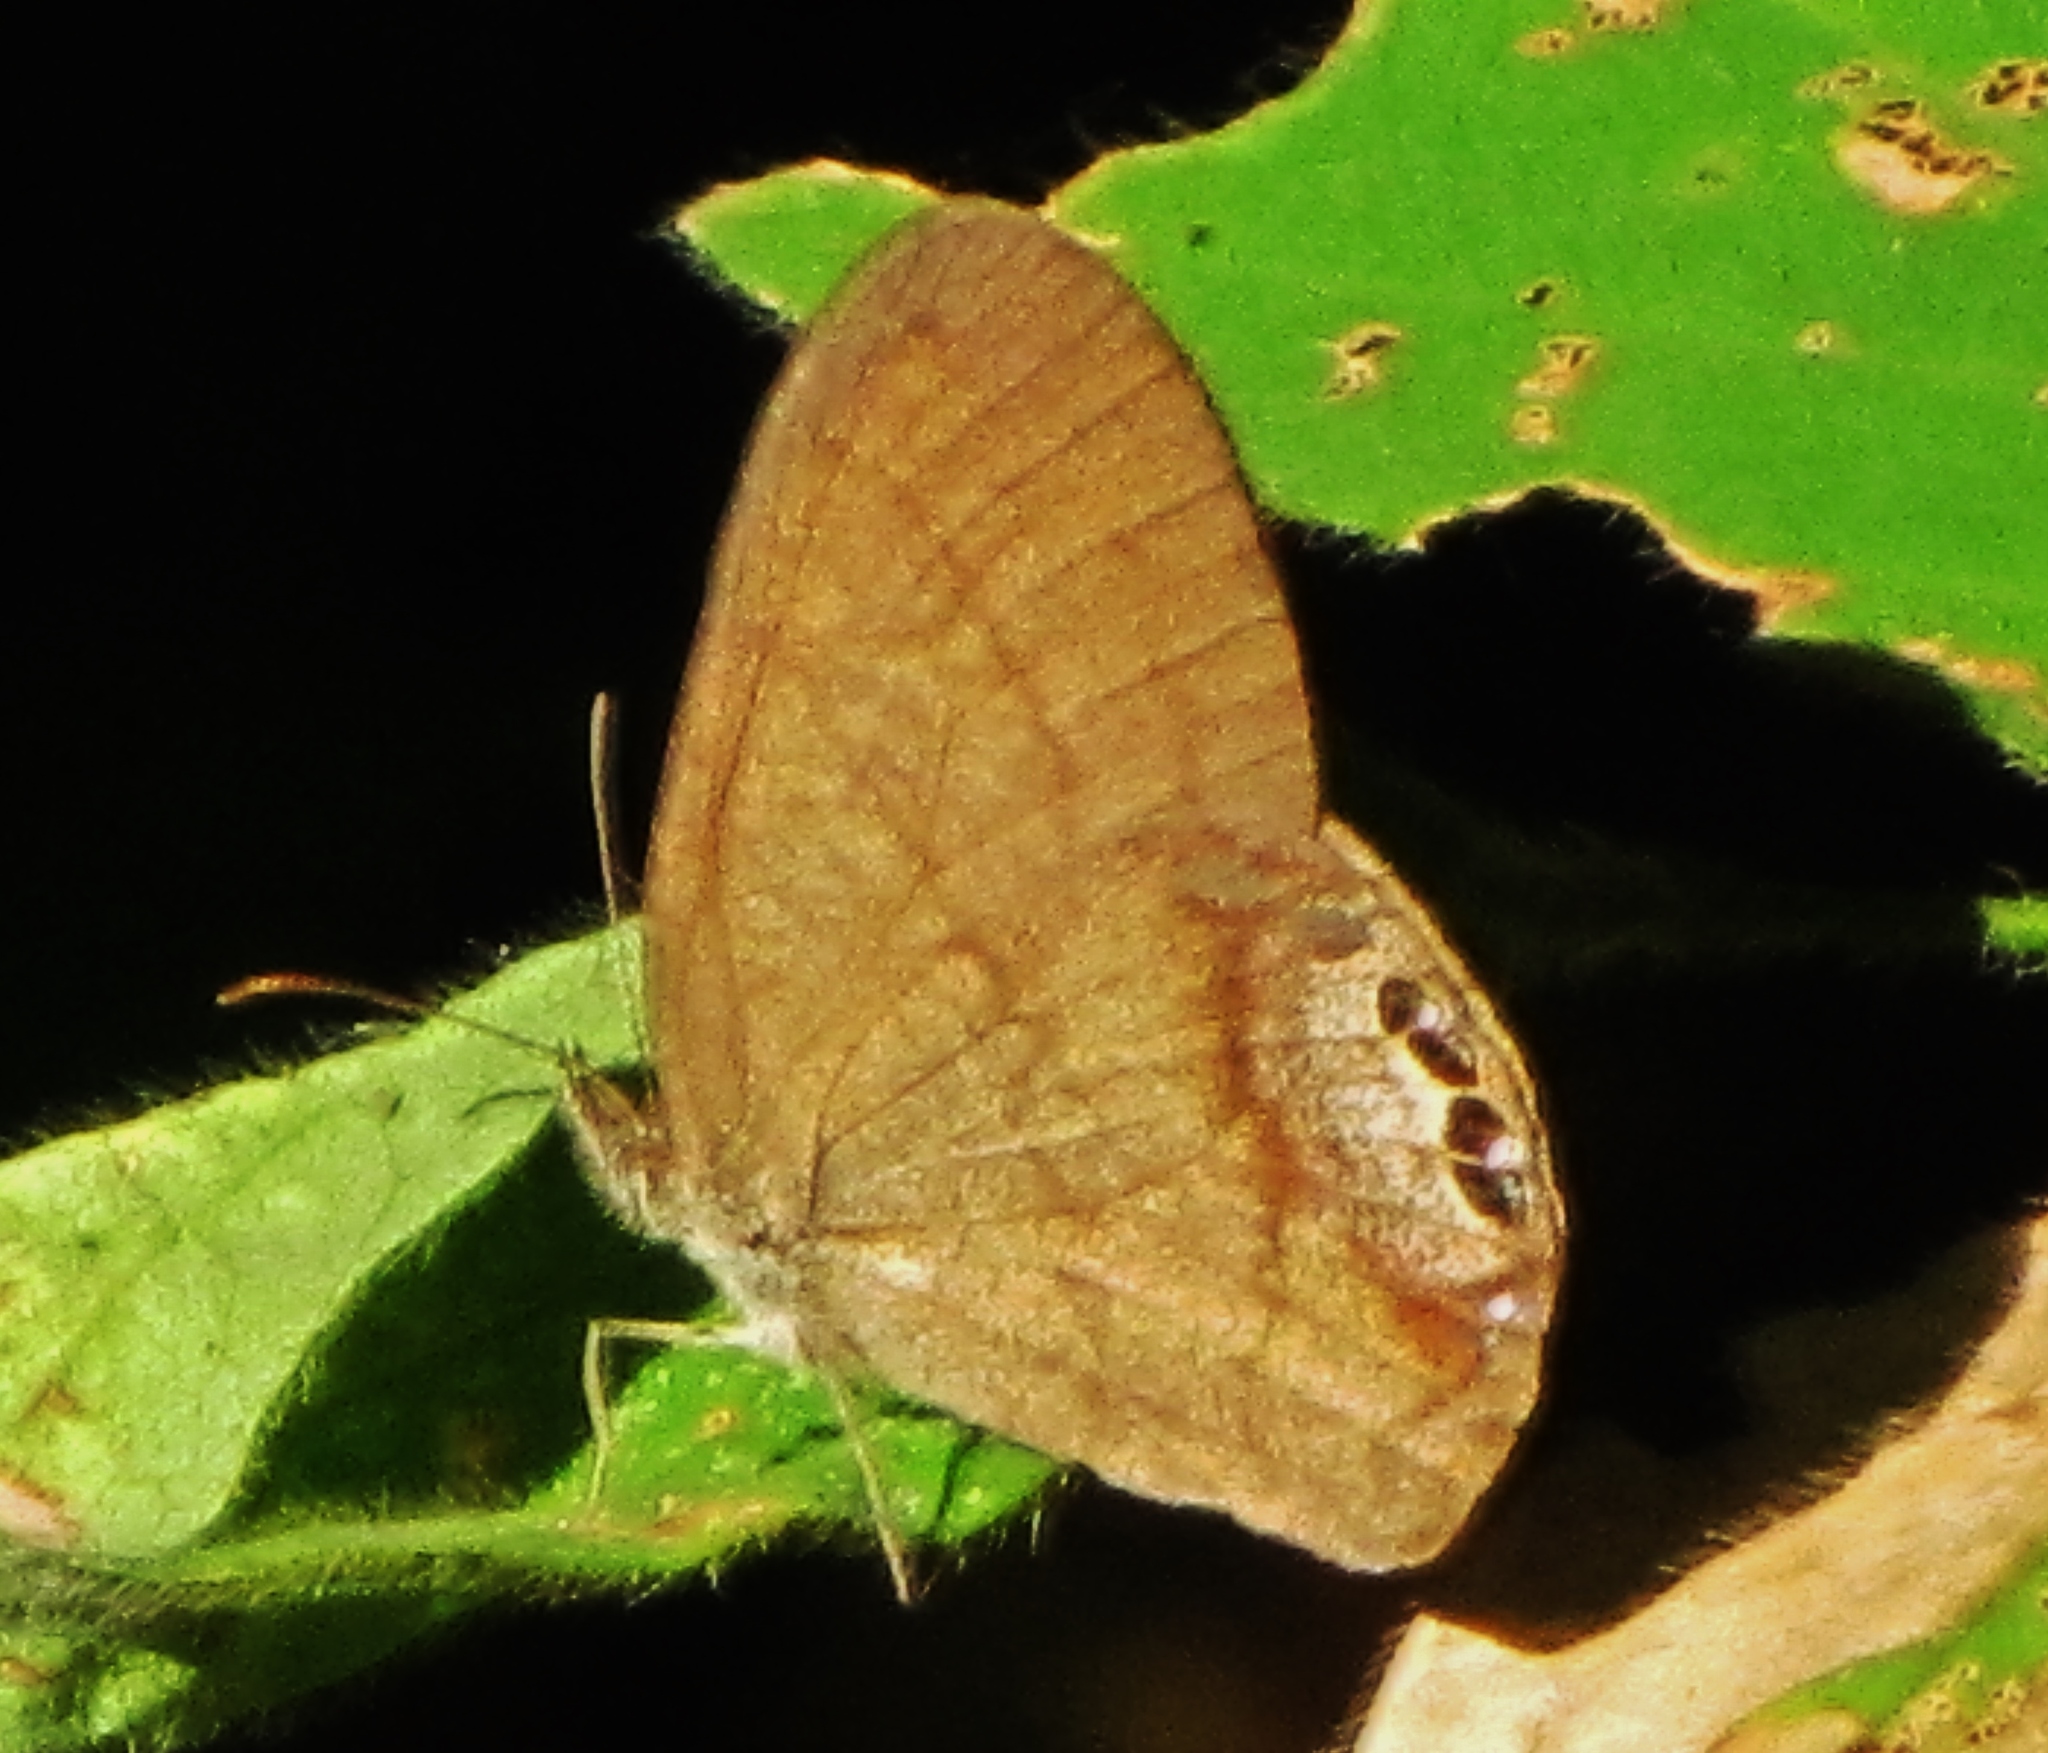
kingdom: Animalia
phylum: Arthropoda
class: Insecta
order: Lepidoptera
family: Nymphalidae
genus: Euptychia
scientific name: Euptychia cornelius
